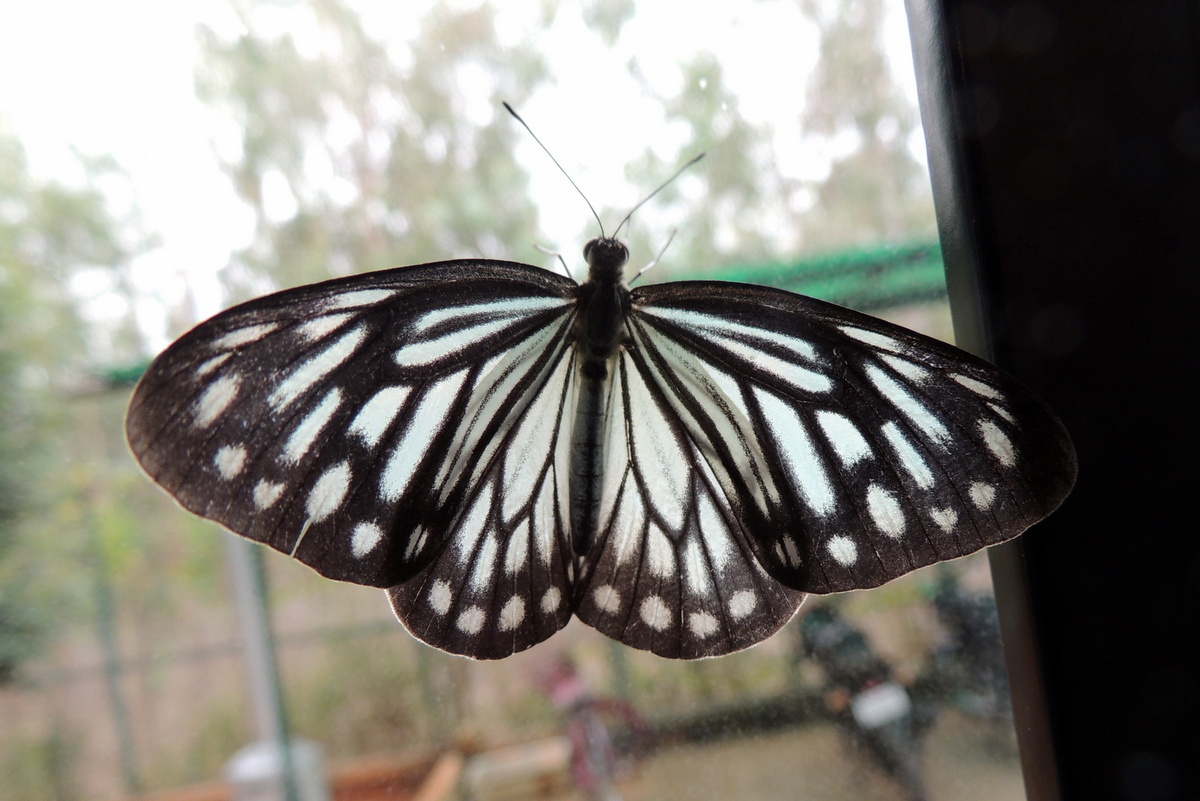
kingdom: Animalia
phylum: Arthropoda
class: Insecta
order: Lepidoptera
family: Pieridae
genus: Pareronia
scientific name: Pareronia hippia
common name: Indian wanderer
